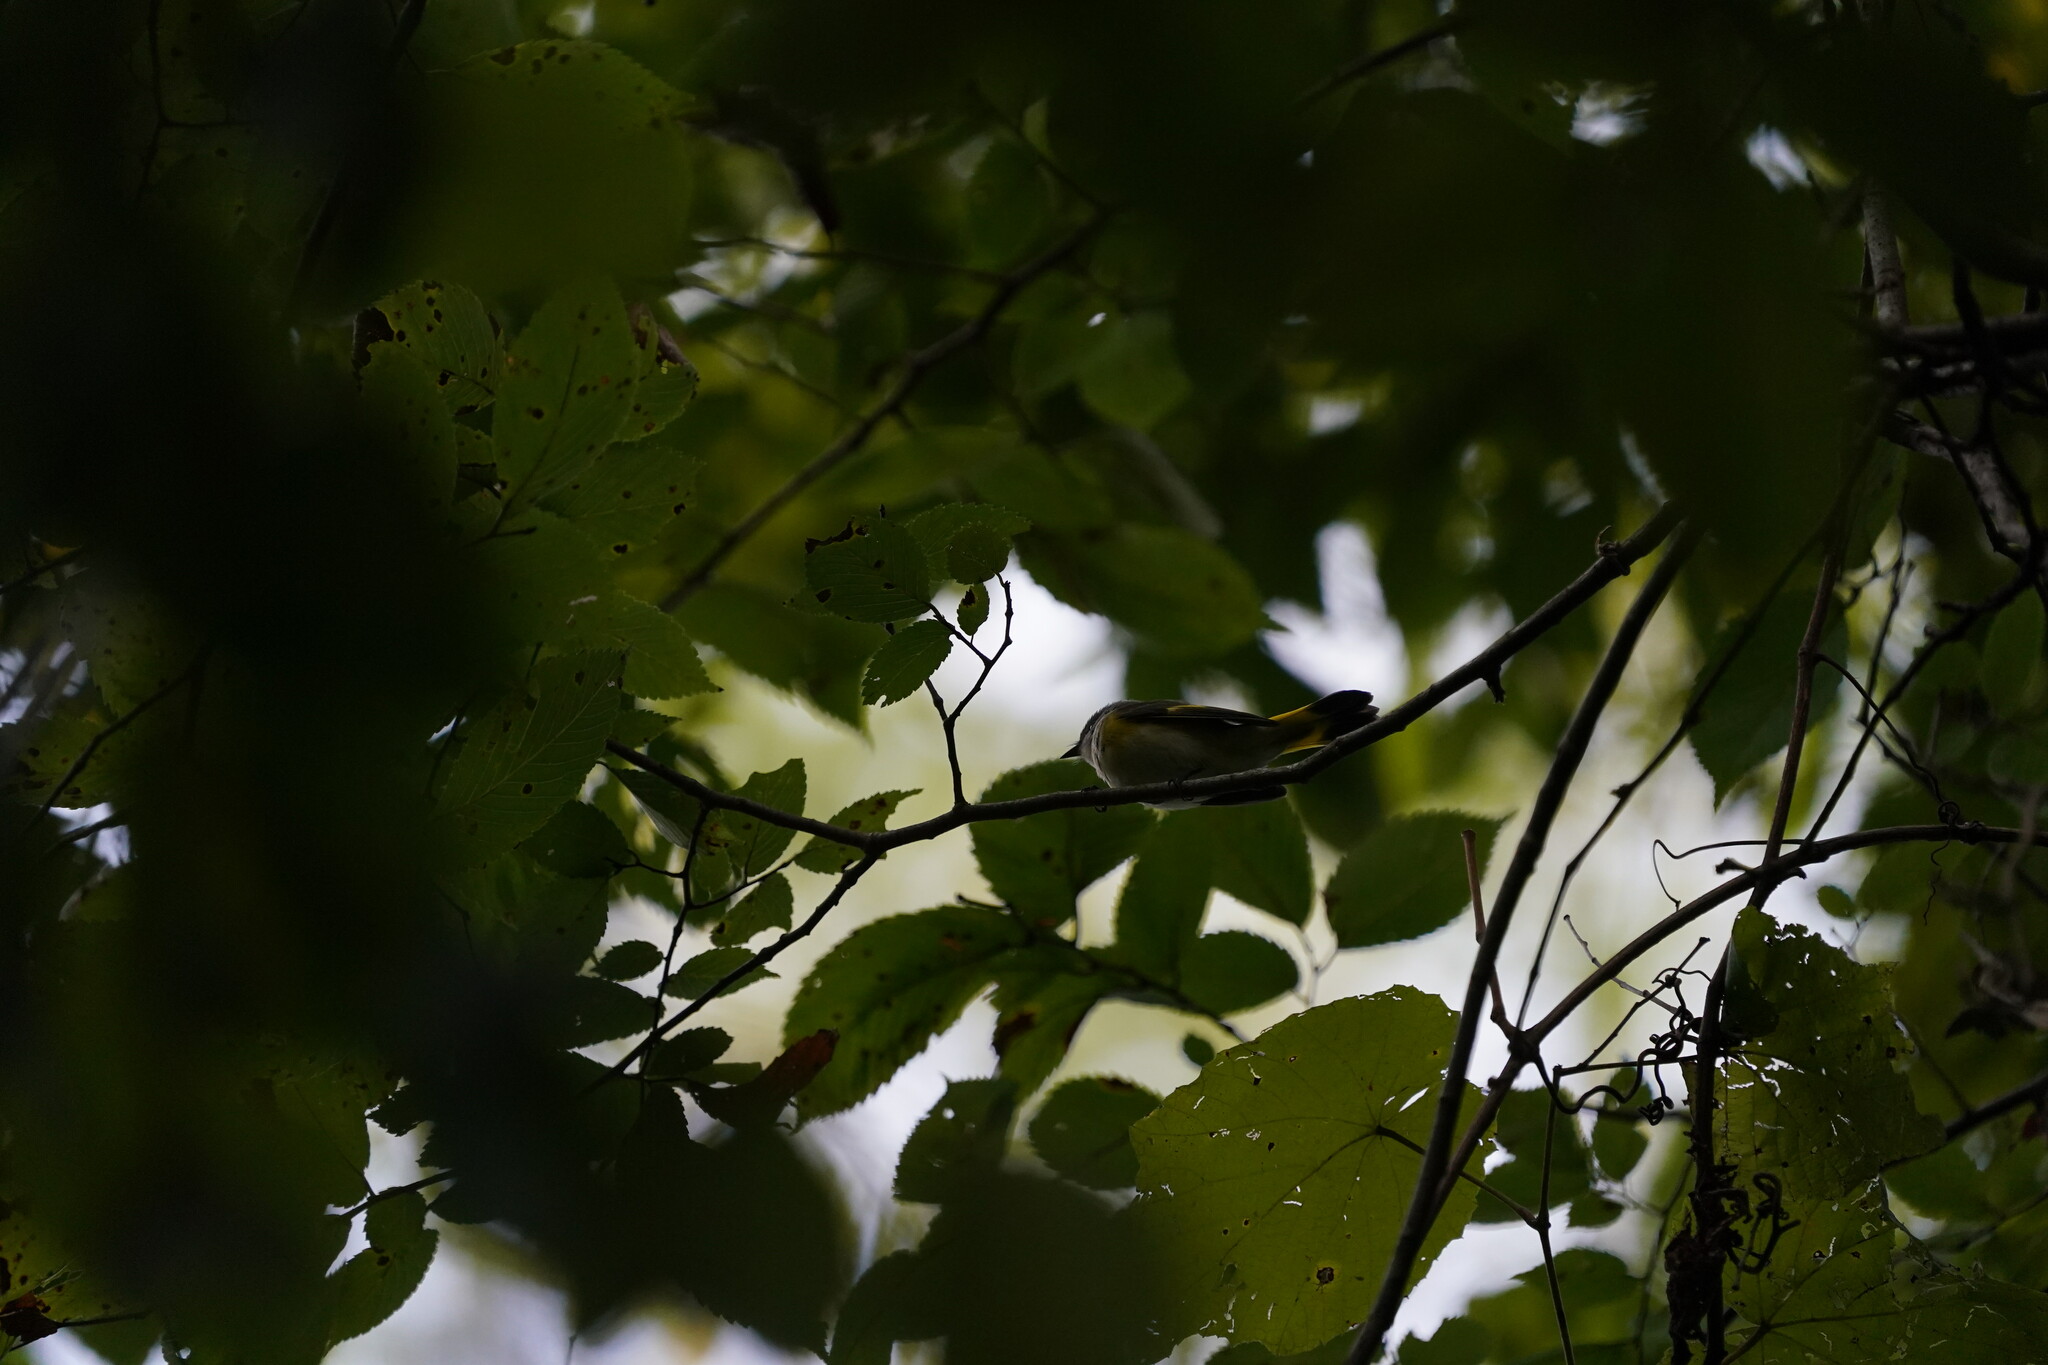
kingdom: Animalia
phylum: Chordata
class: Aves
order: Passeriformes
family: Parulidae
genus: Setophaga
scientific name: Setophaga ruticilla
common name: American redstart
